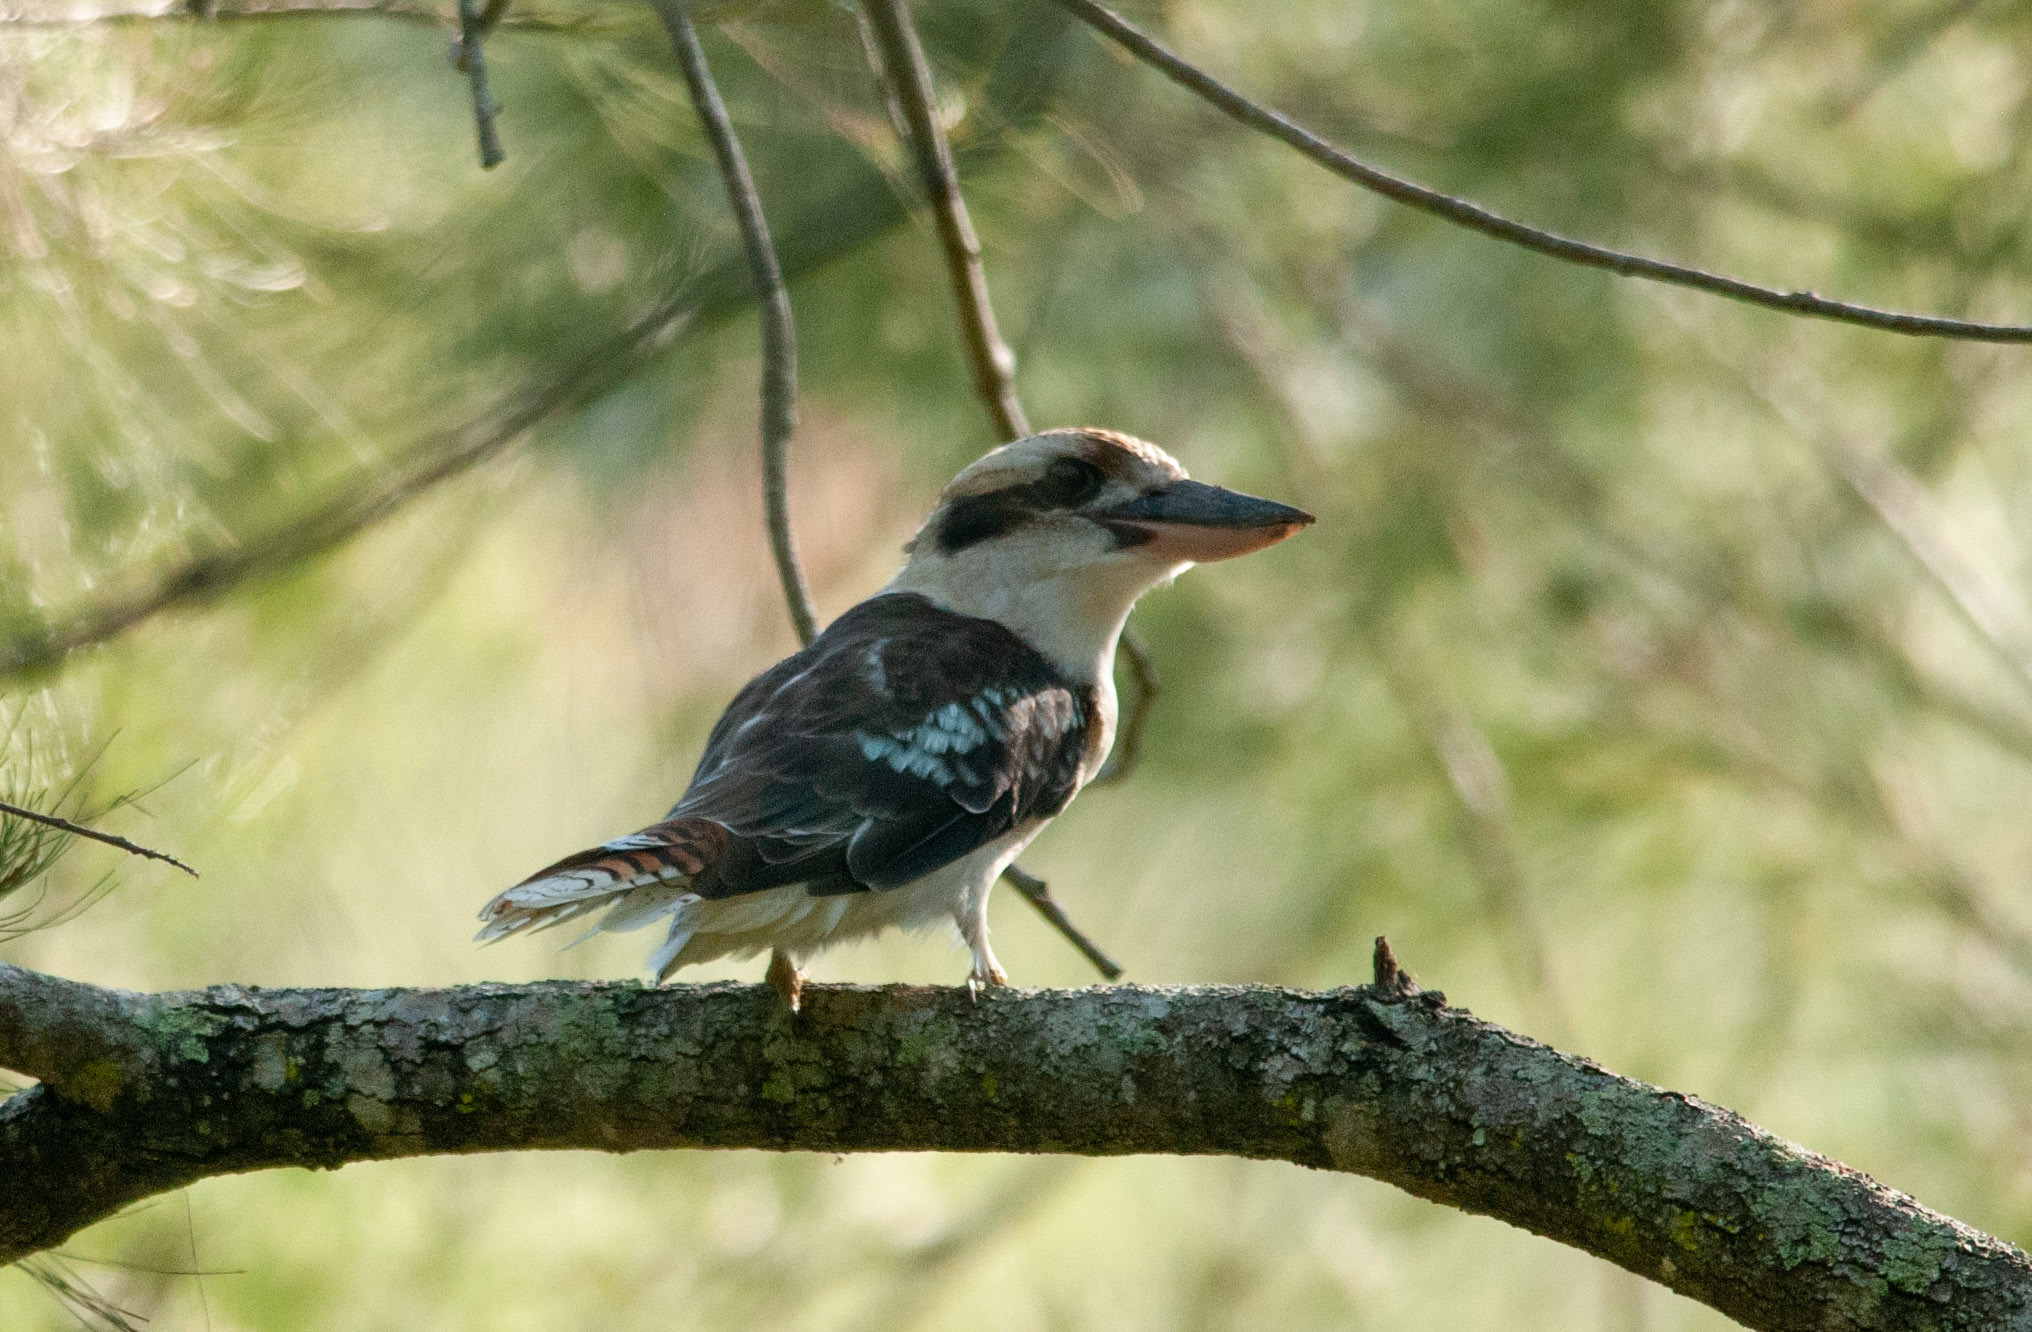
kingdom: Animalia
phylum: Chordata
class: Aves
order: Coraciiformes
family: Alcedinidae
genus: Dacelo
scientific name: Dacelo novaeguineae
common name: Laughing kookaburra
